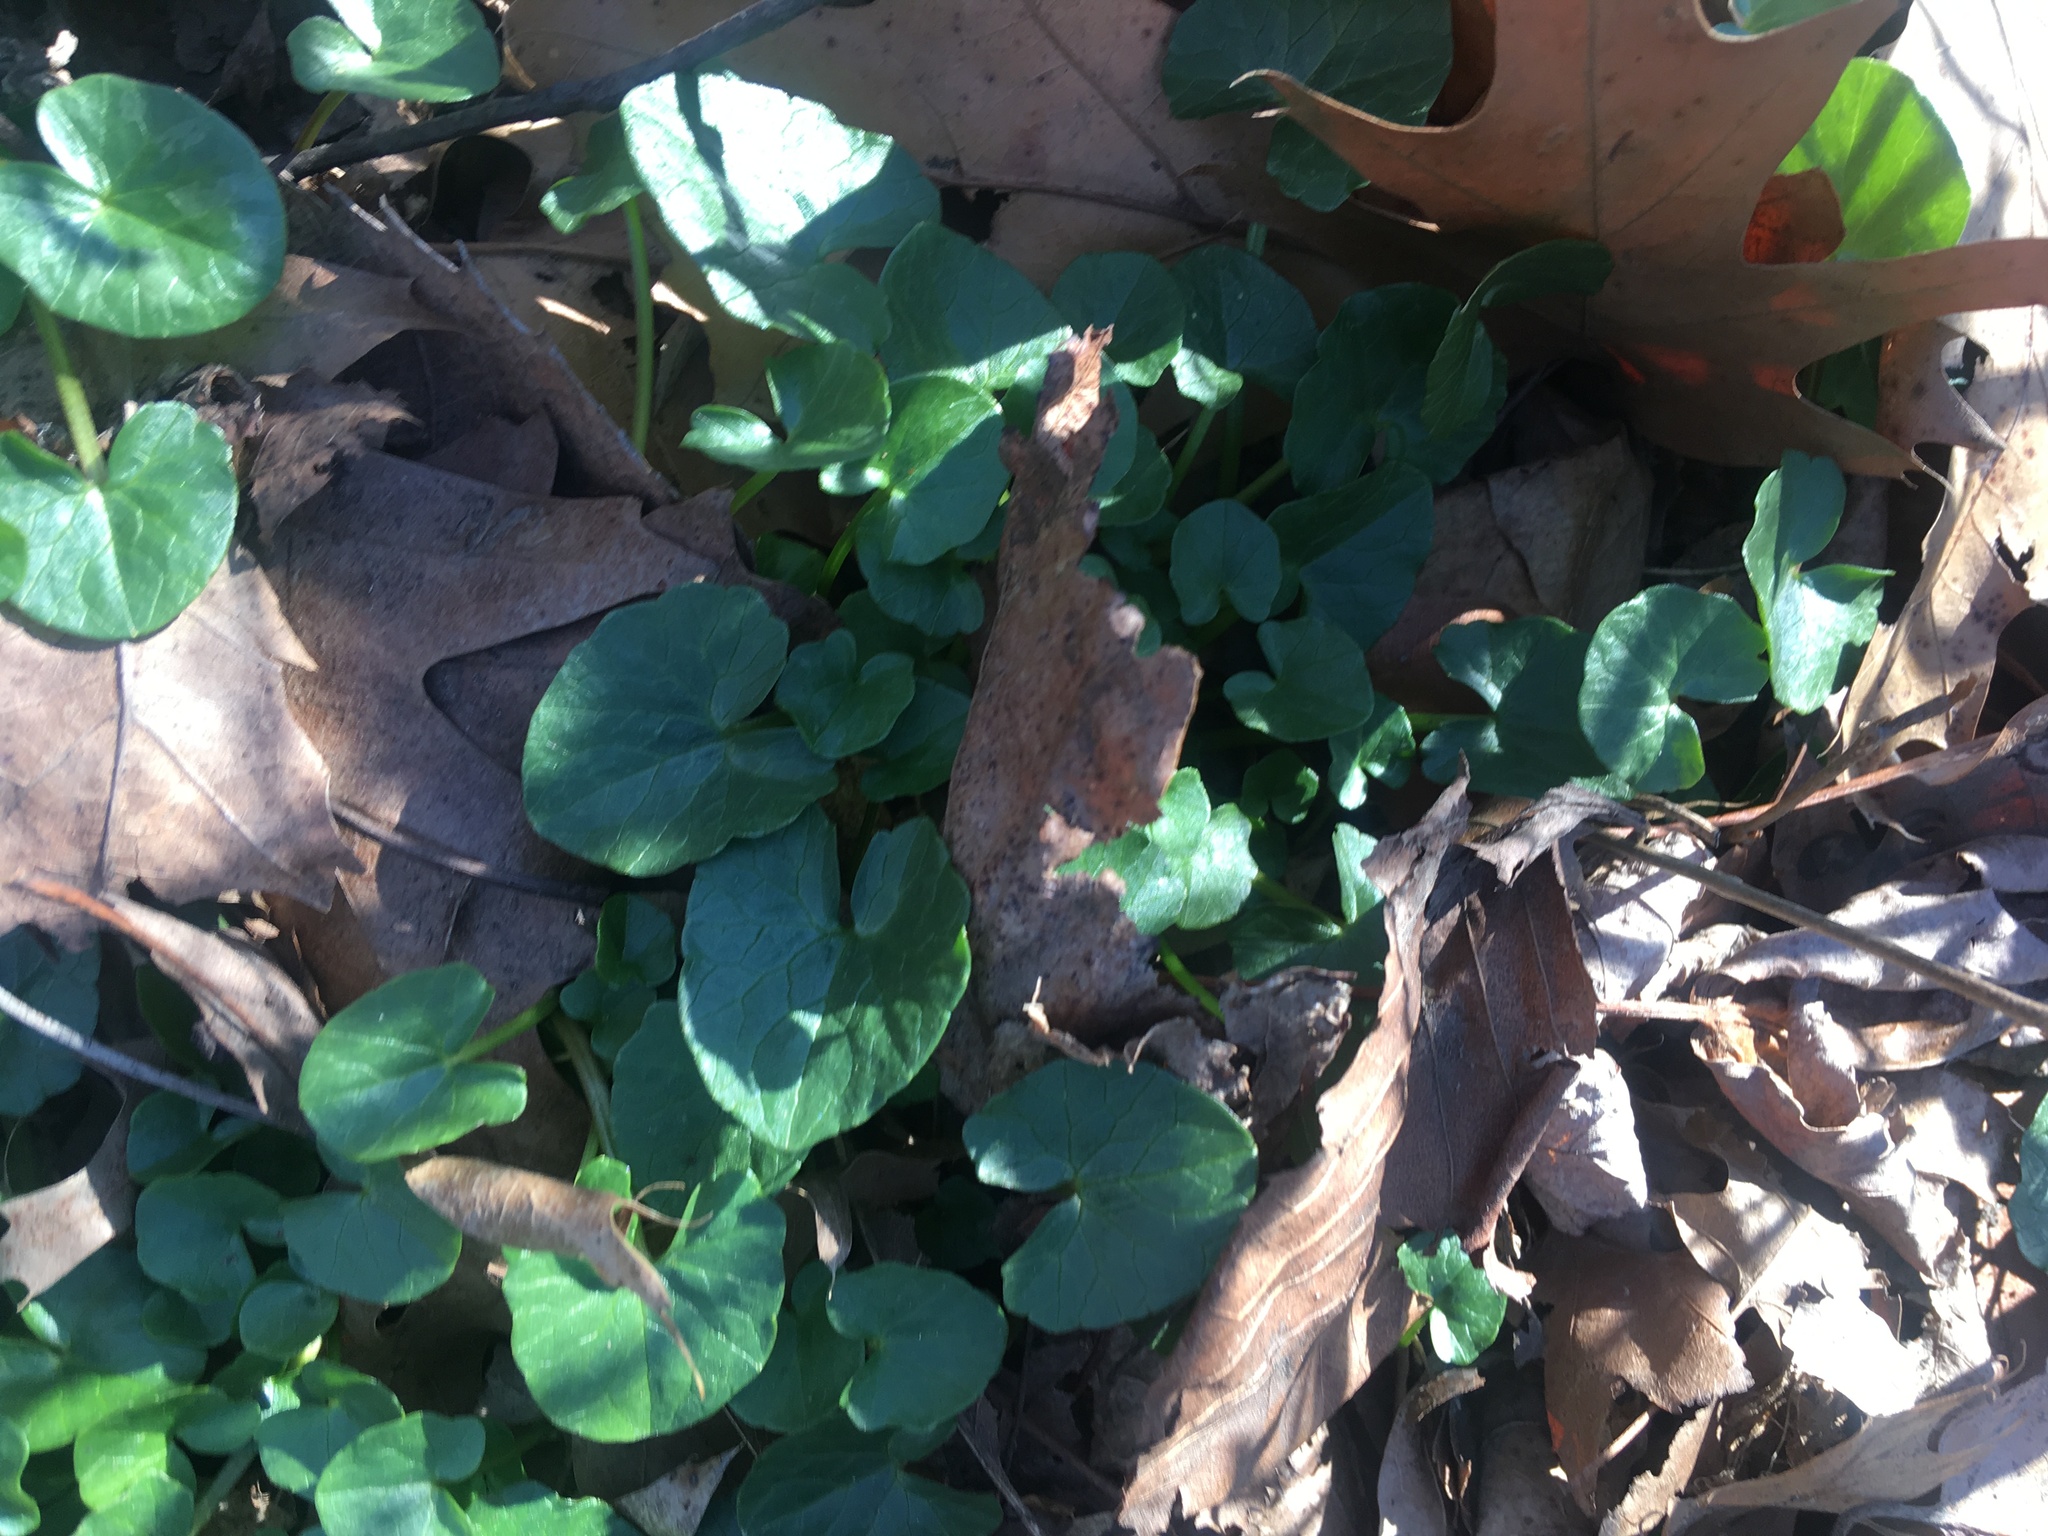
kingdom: Plantae
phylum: Tracheophyta
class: Magnoliopsida
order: Ranunculales
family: Ranunculaceae
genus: Ficaria
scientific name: Ficaria verna
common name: Lesser celandine
